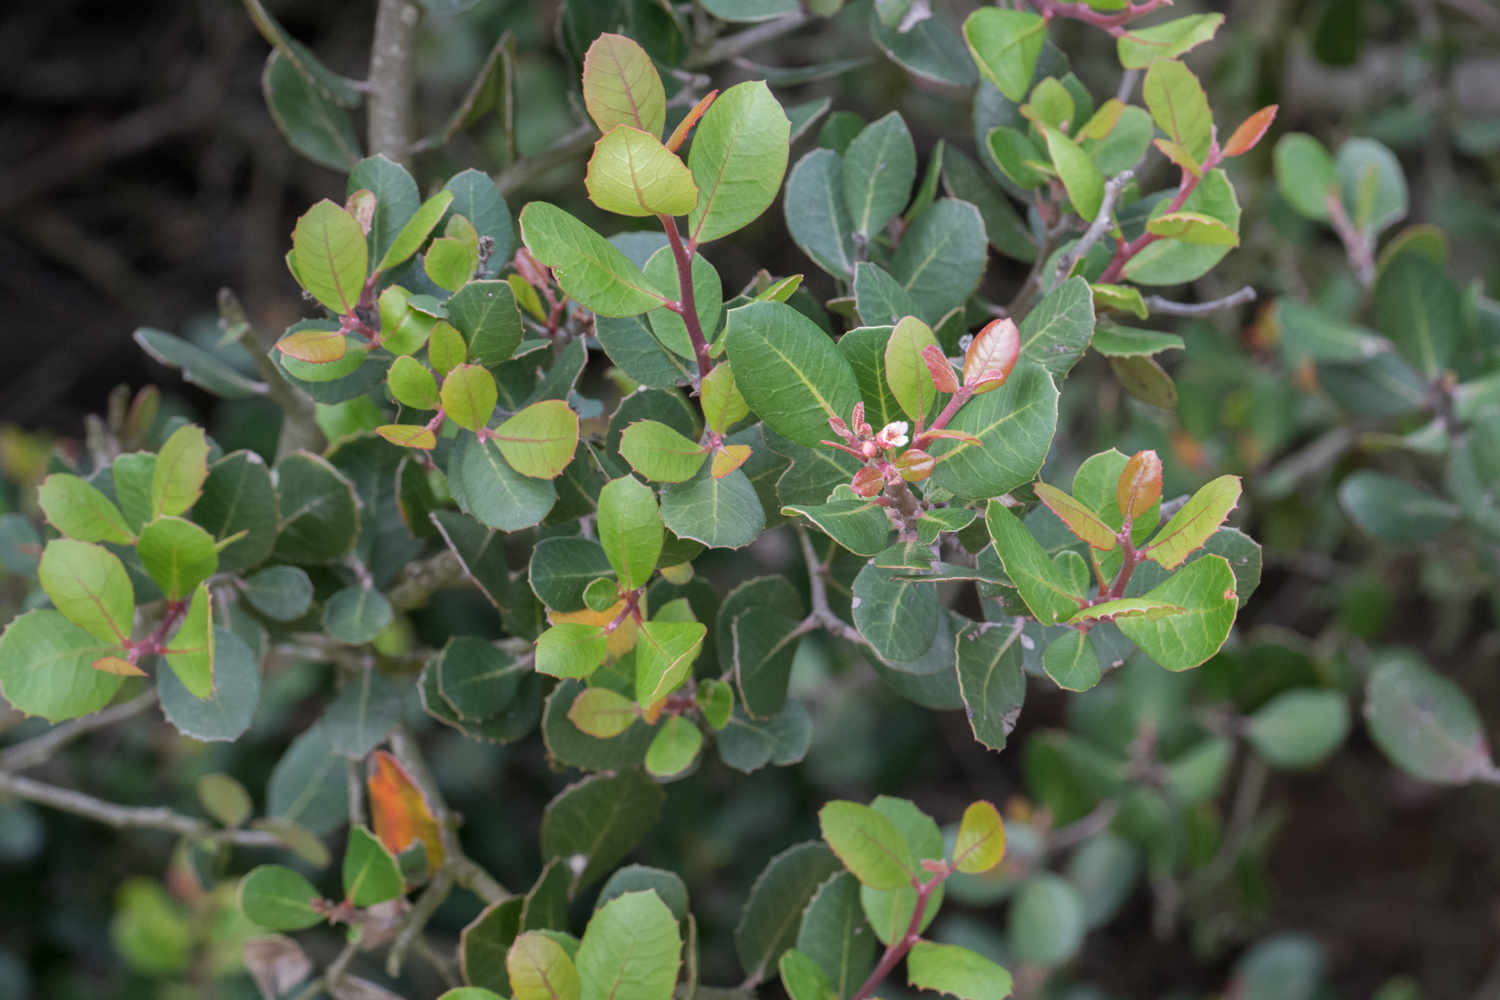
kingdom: Plantae
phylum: Tracheophyta
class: Magnoliopsida
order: Sapindales
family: Anacardiaceae
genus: Rhus
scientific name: Rhus integrifolia
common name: Lemonade sumac
